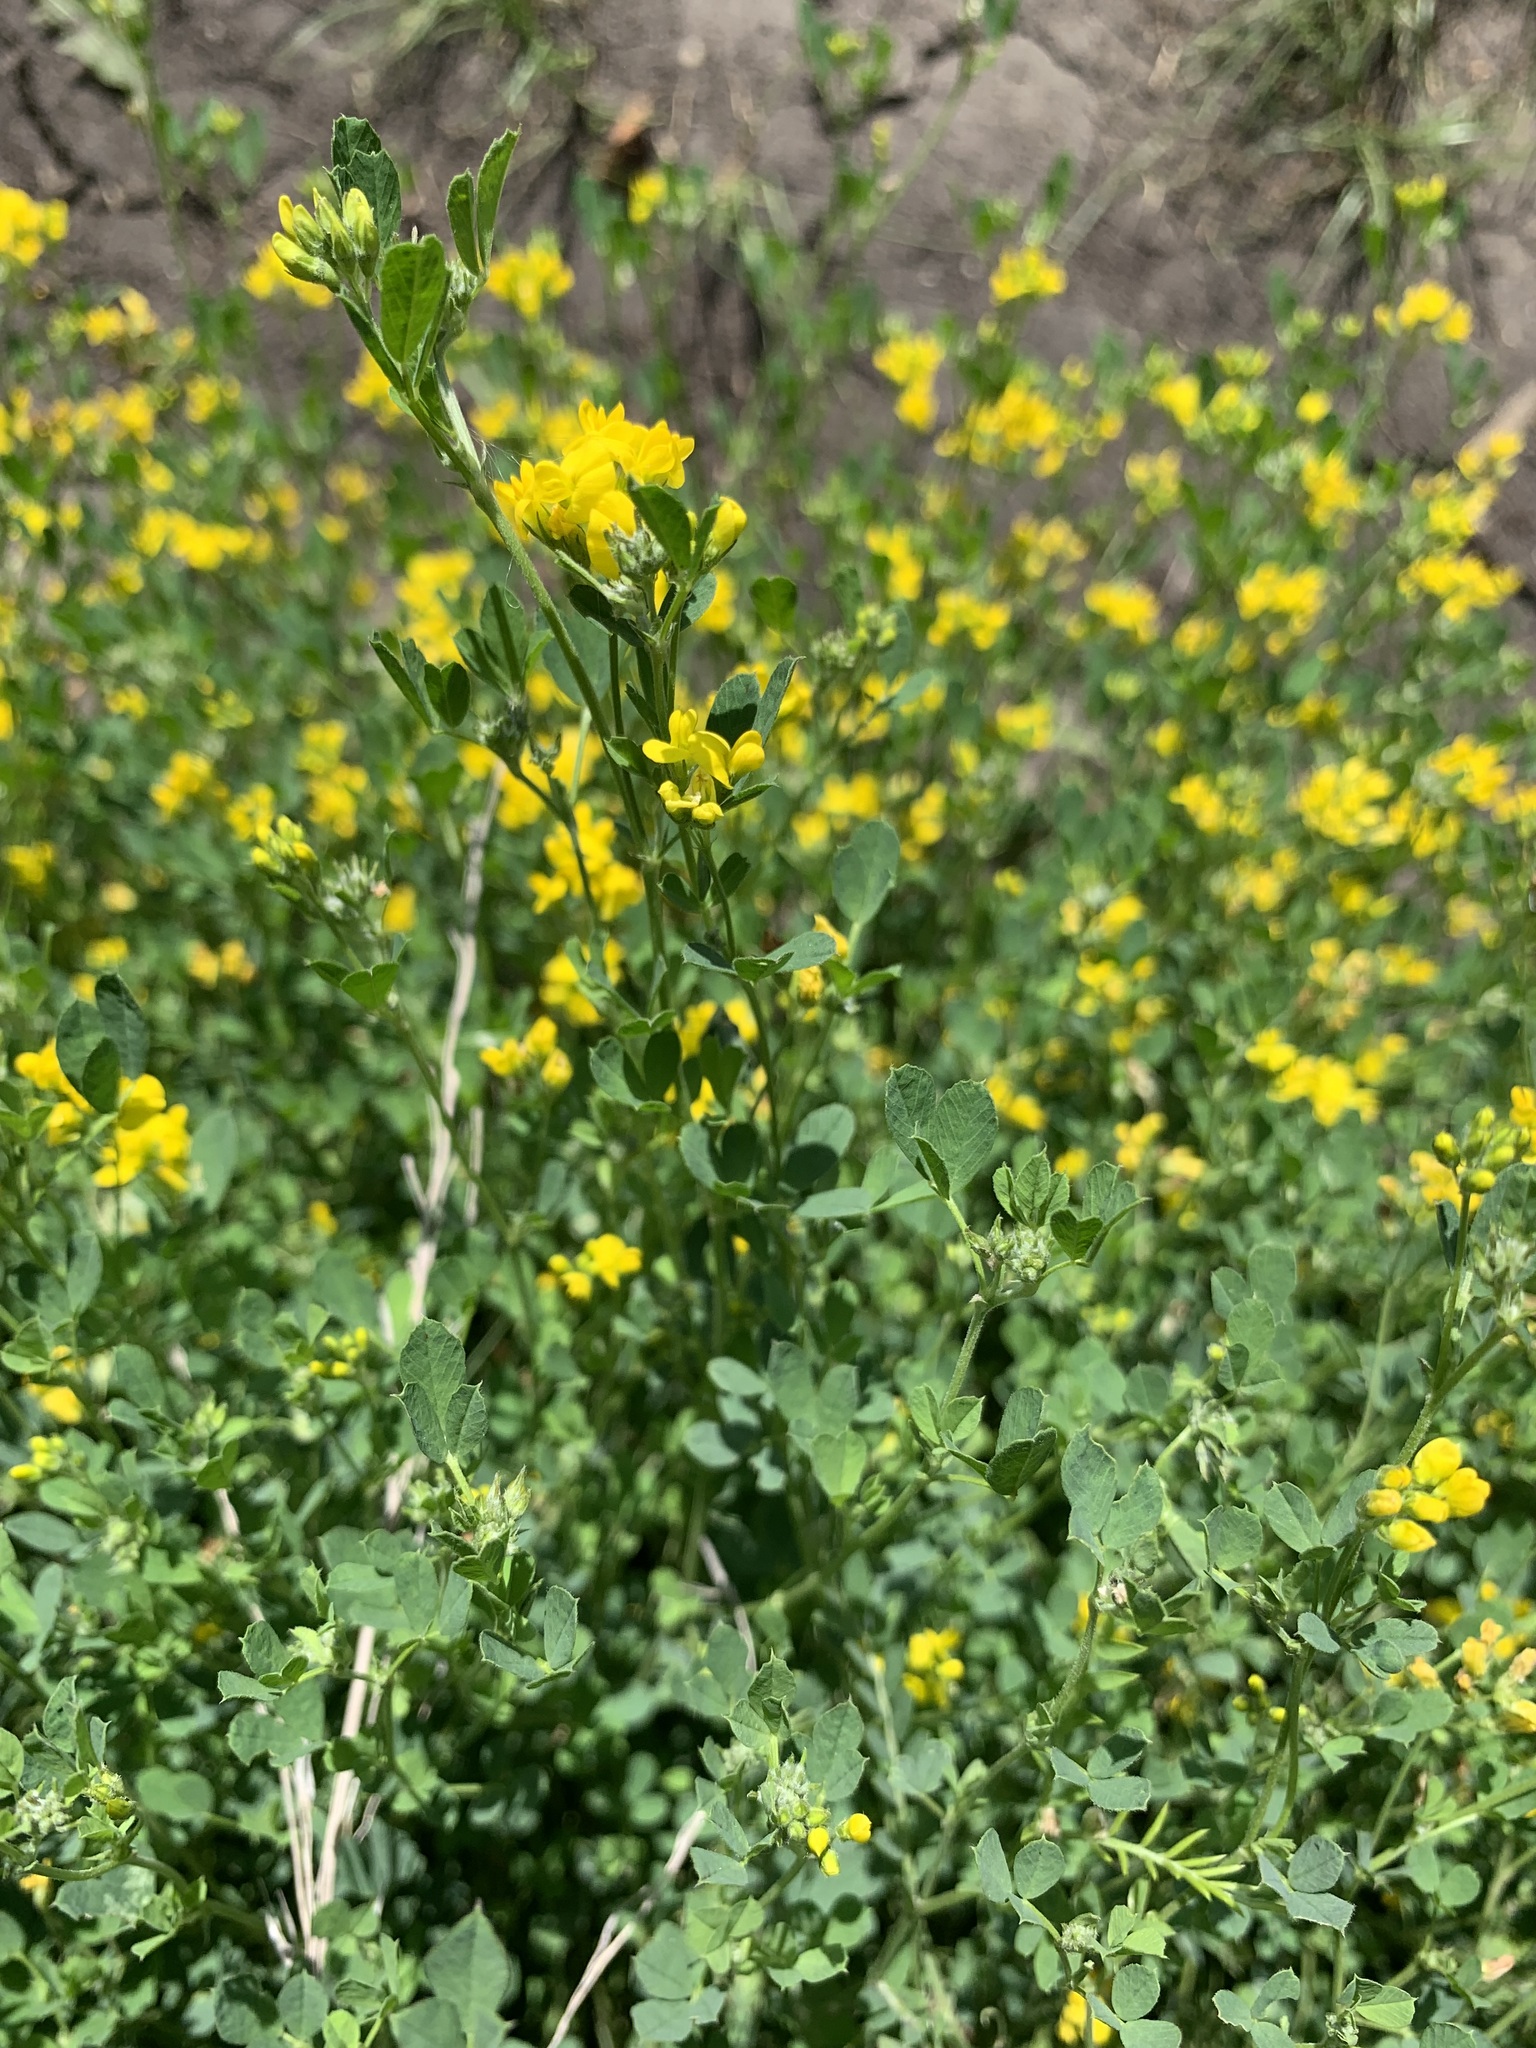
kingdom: Plantae
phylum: Tracheophyta
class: Magnoliopsida
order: Fabales
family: Fabaceae
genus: Medicago
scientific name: Medicago falcata
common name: Sickle medick
